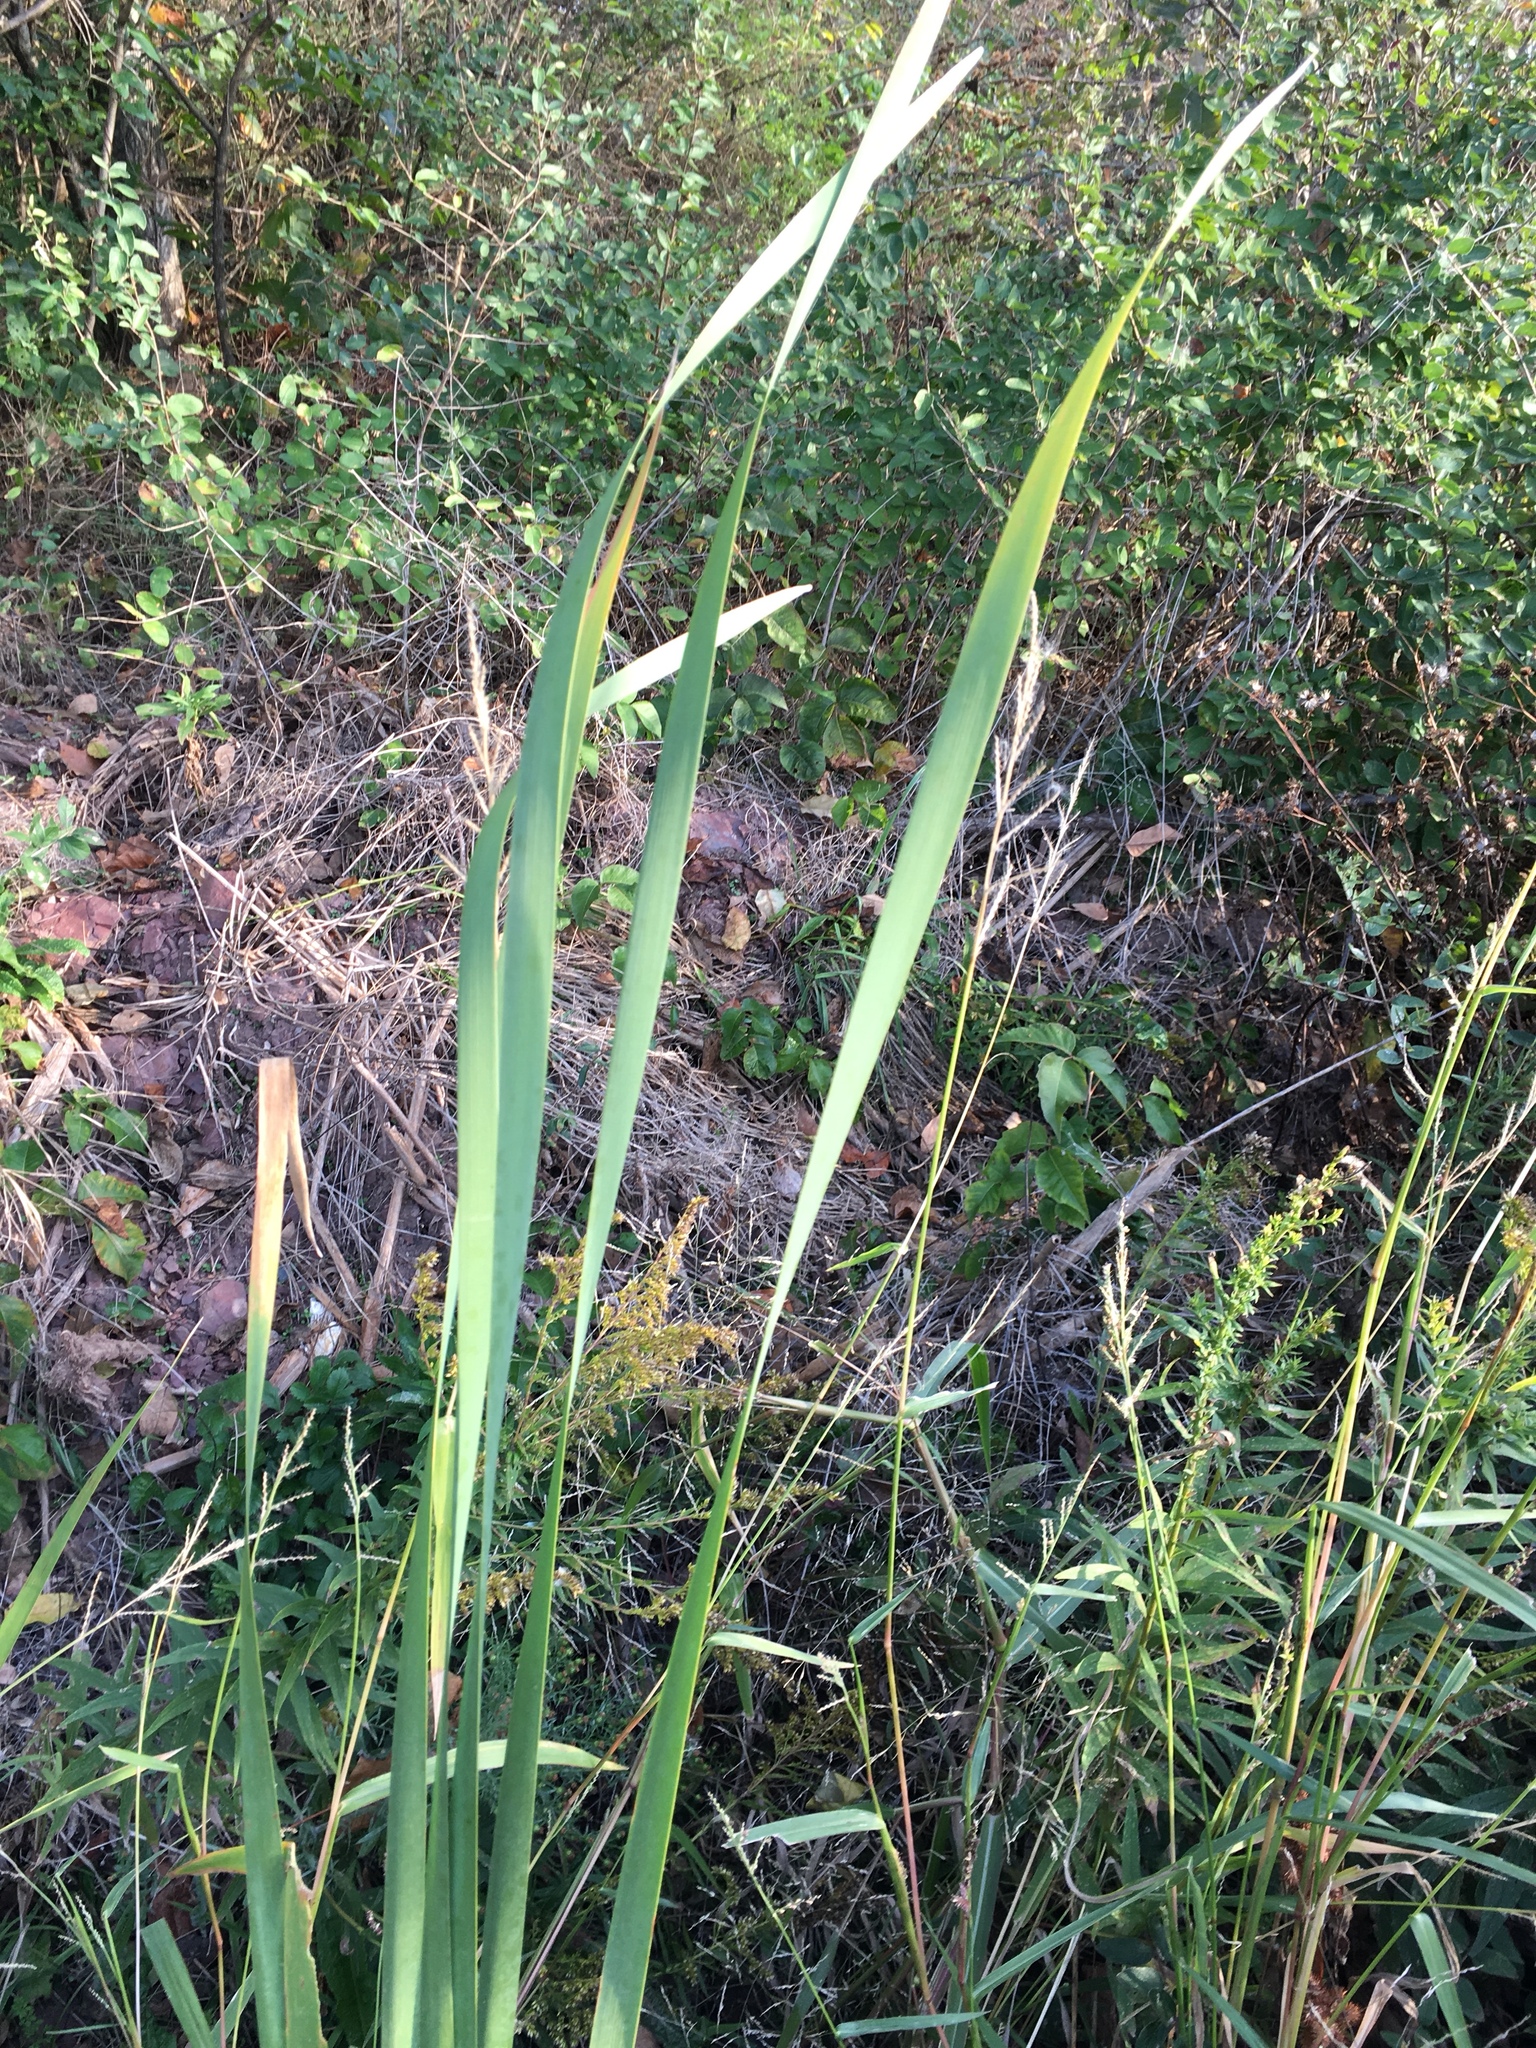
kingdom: Plantae
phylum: Tracheophyta
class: Liliopsida
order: Poales
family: Typhaceae
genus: Typha
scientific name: Typha latifolia
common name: Broadleaf cattail
